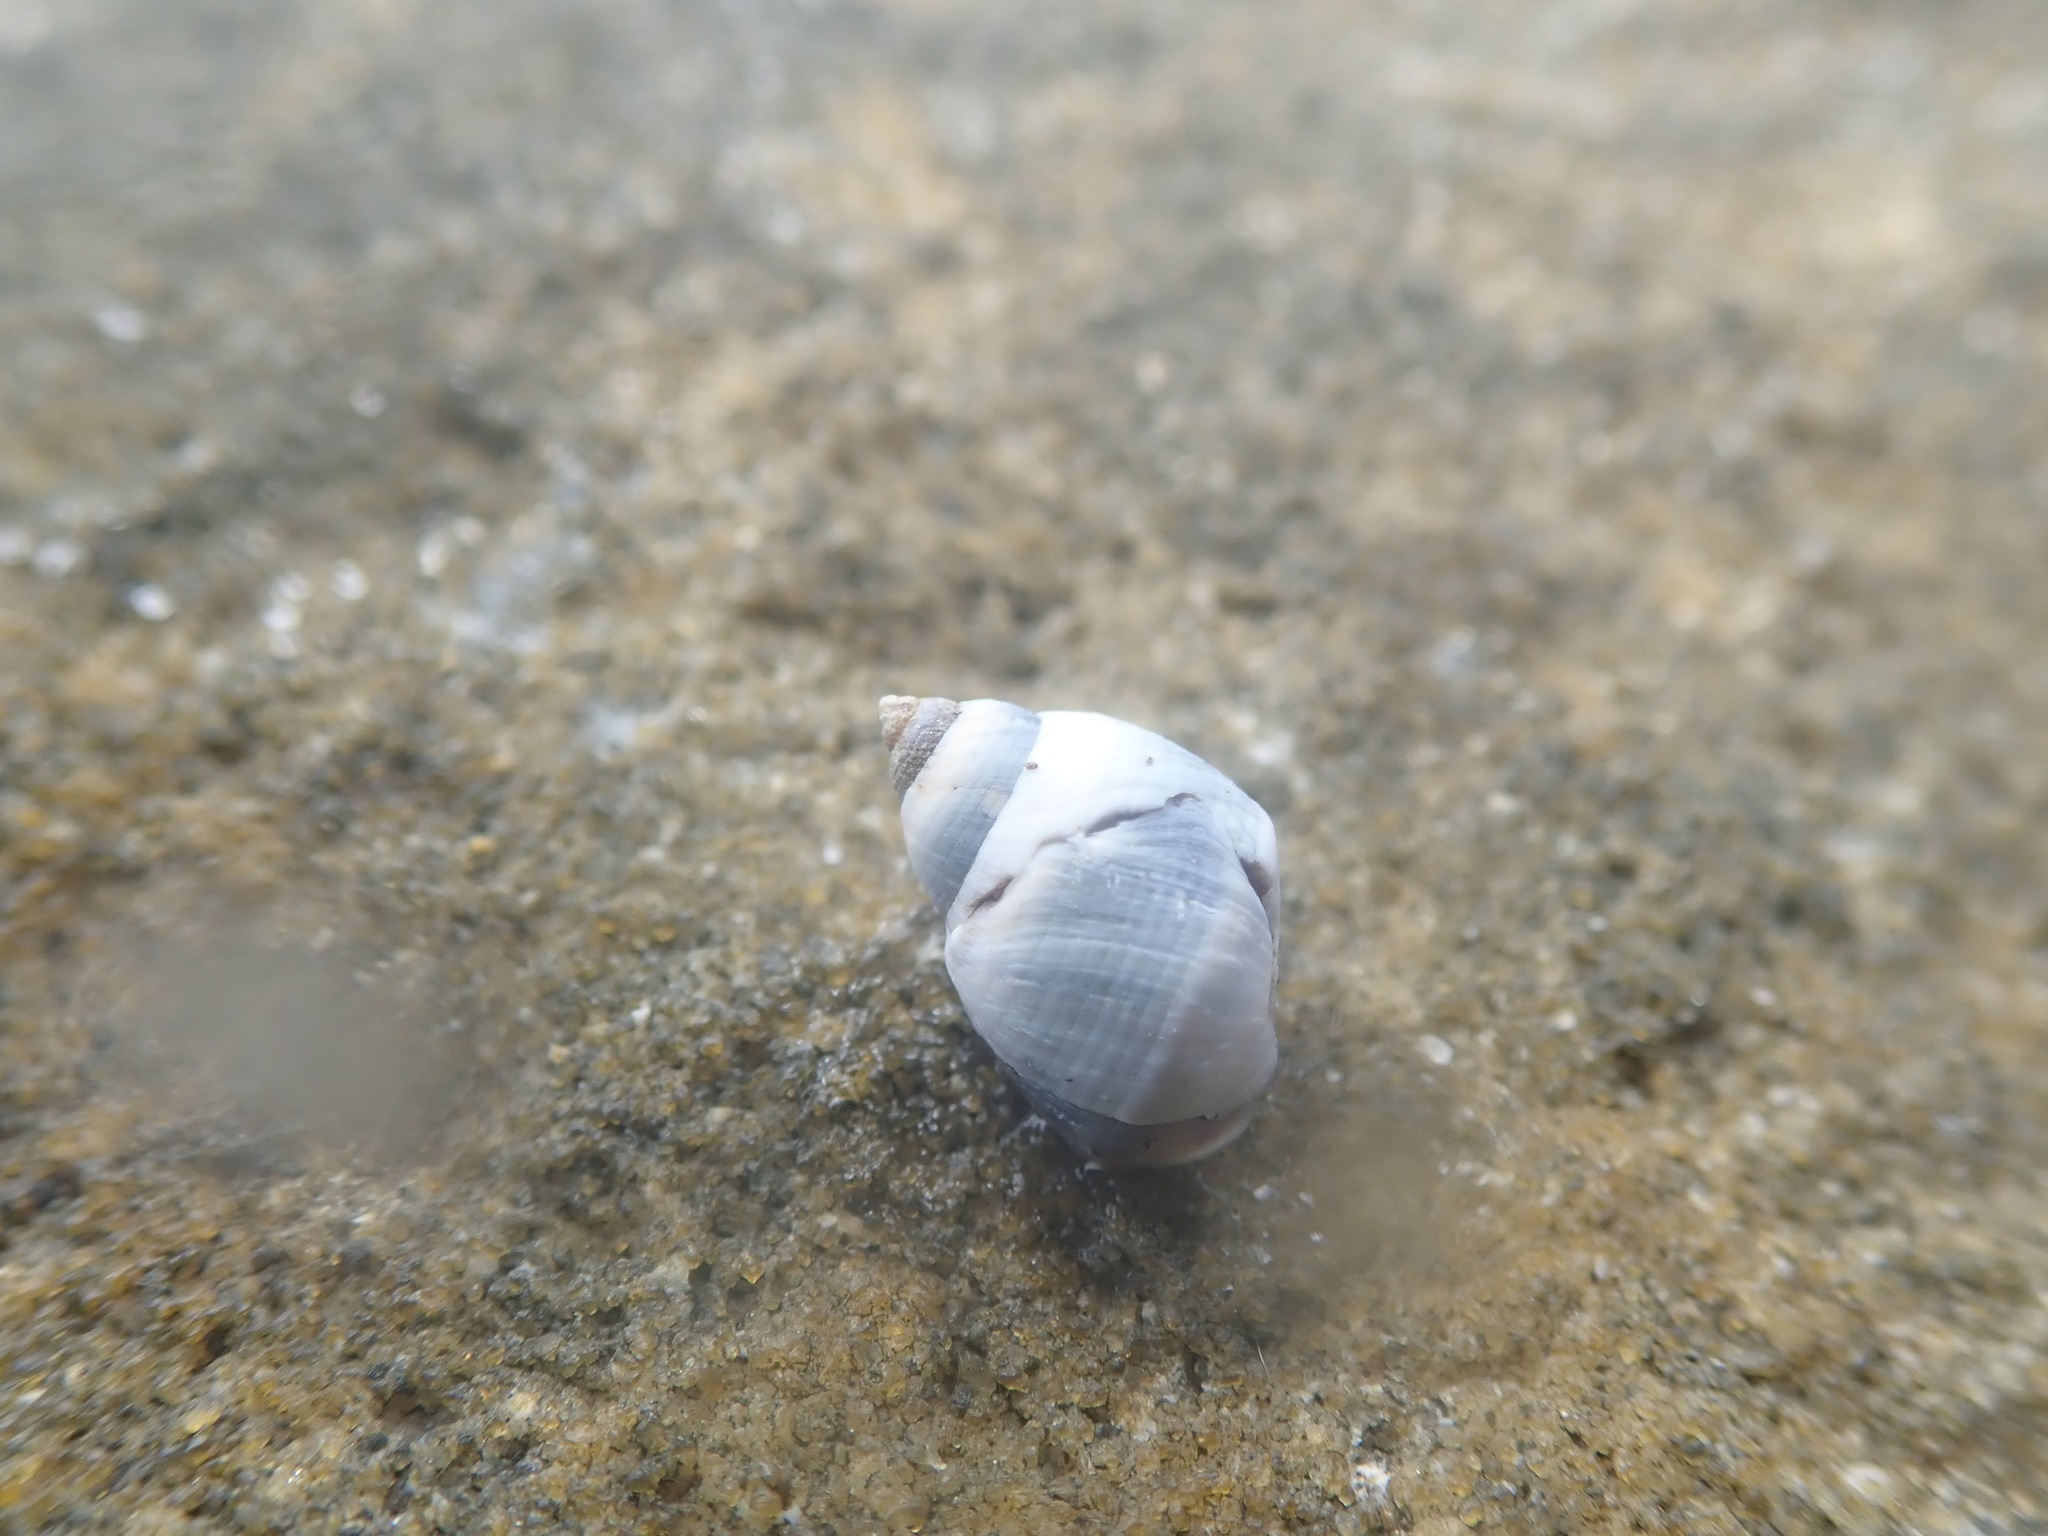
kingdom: Animalia
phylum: Mollusca
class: Gastropoda
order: Littorinimorpha
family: Littorinidae
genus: Austrolittorina
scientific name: Austrolittorina unifasciata
